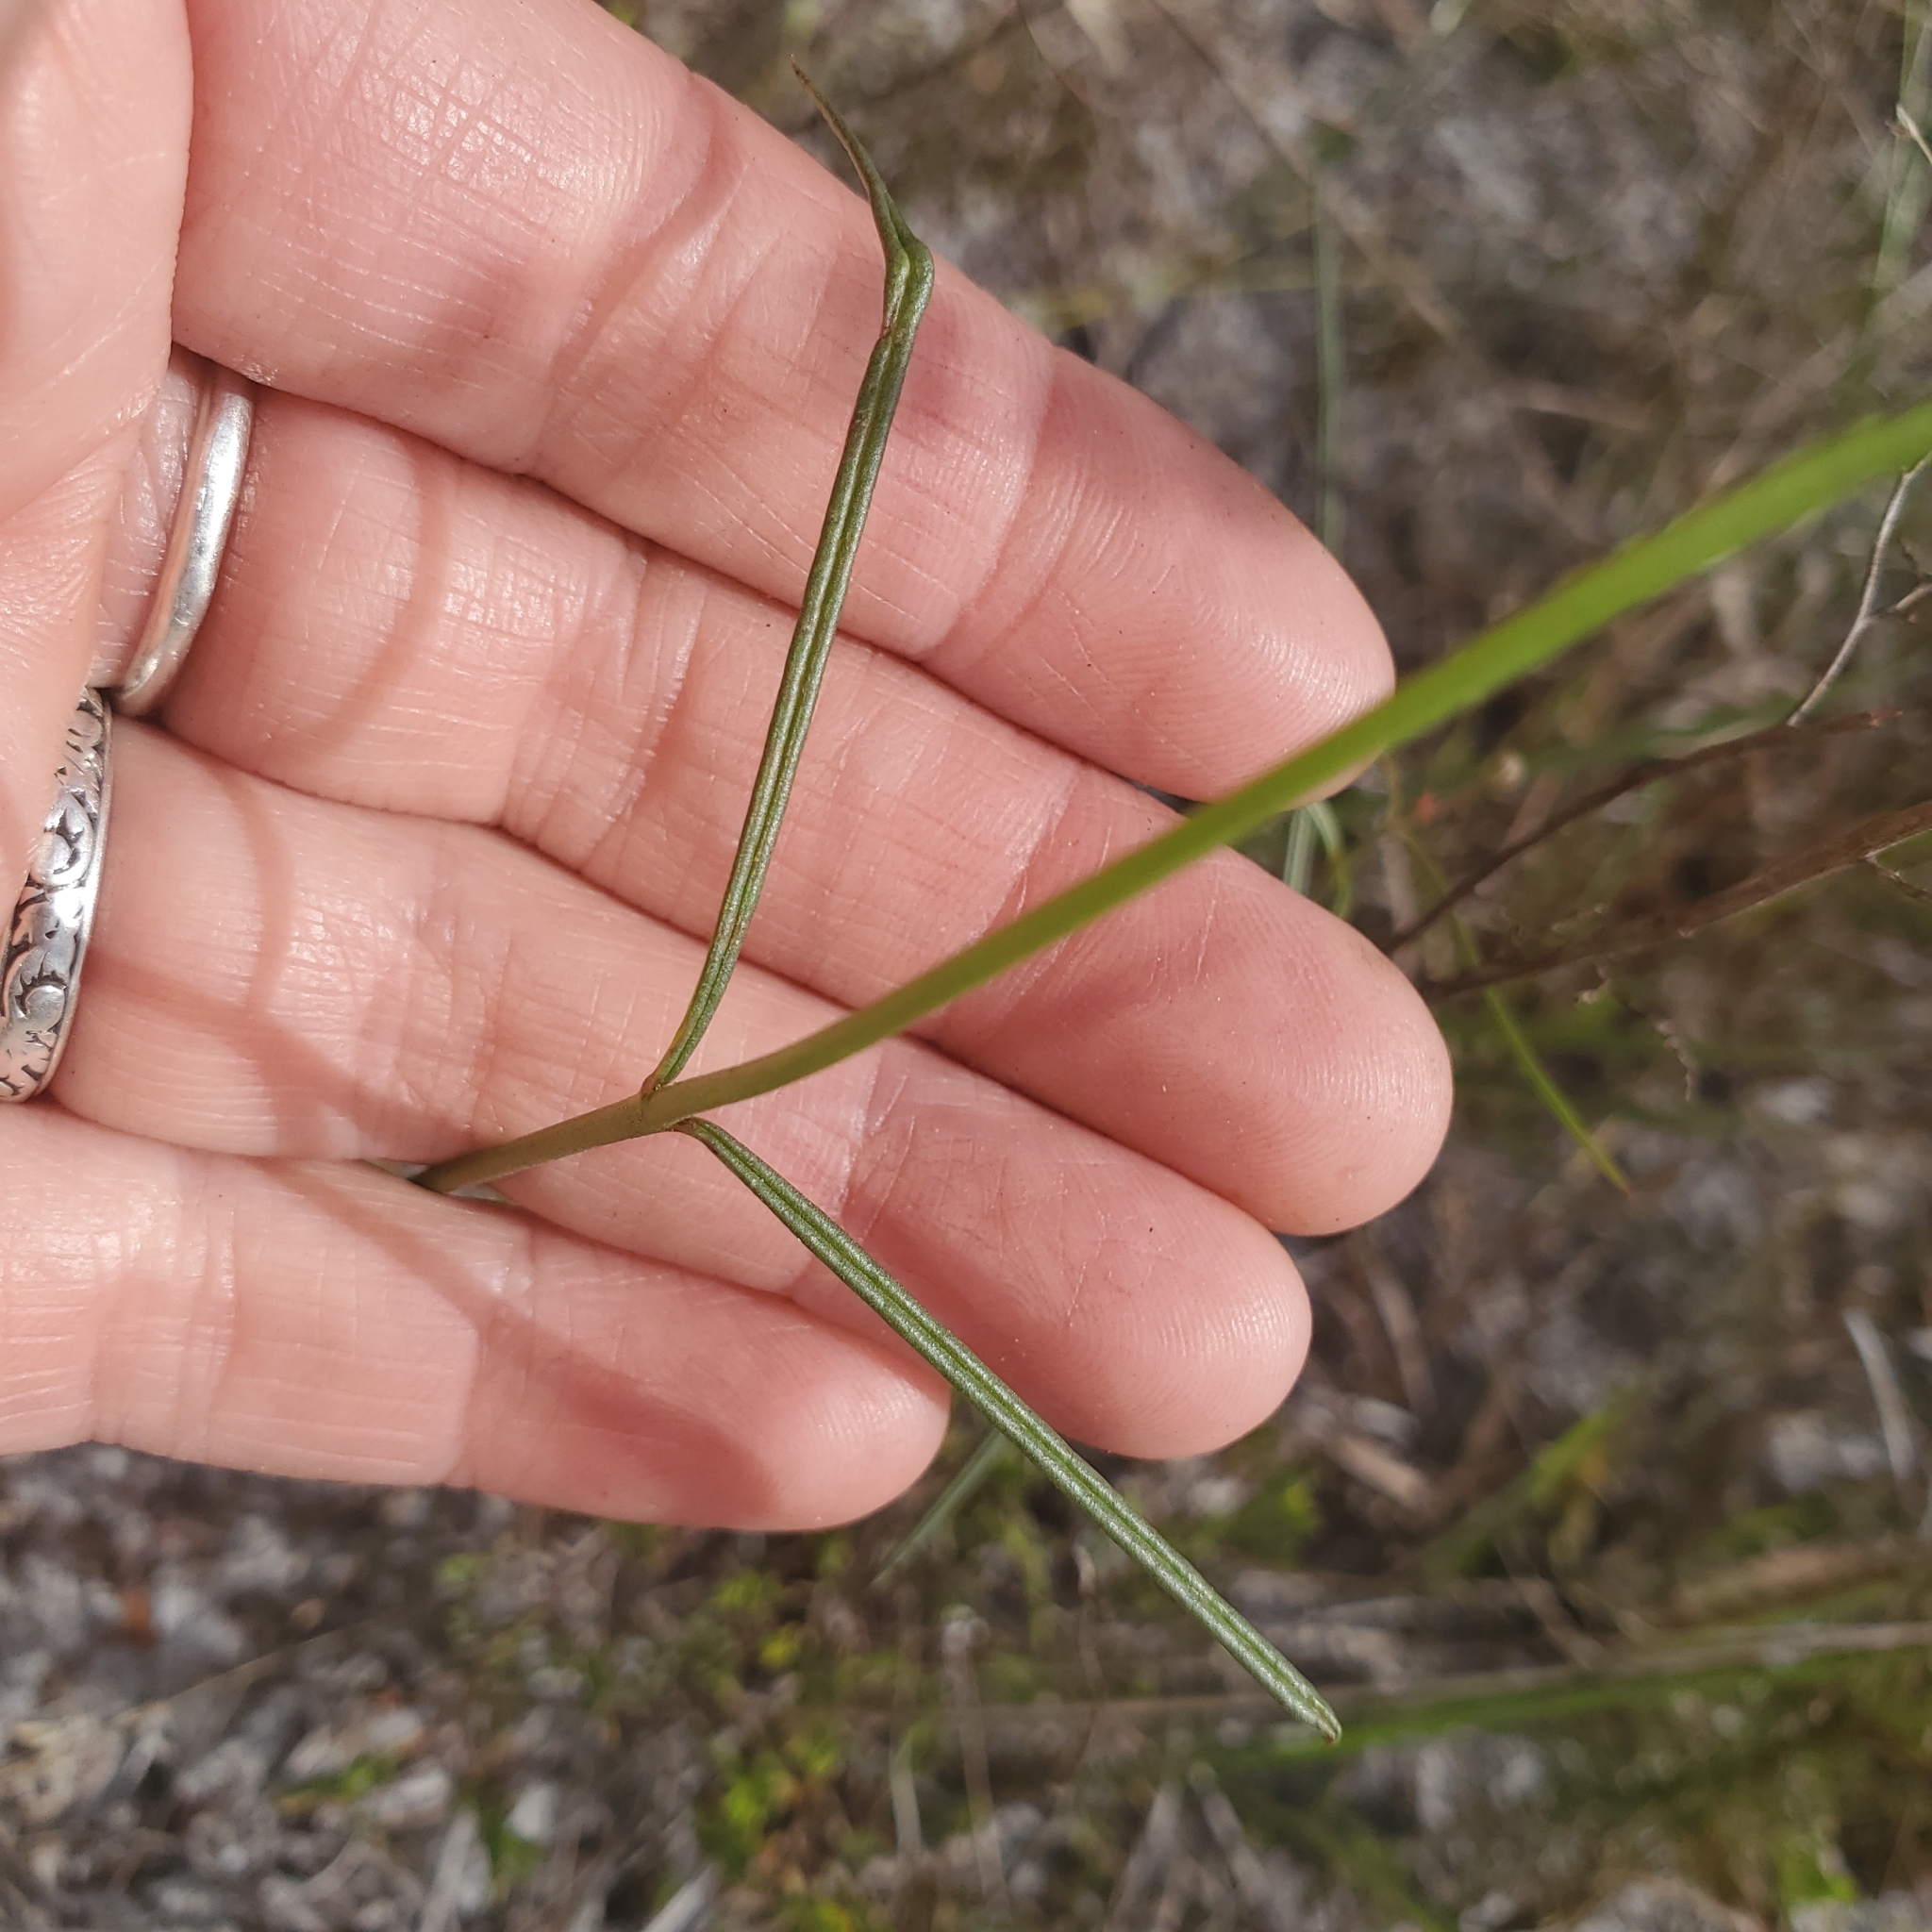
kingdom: Plantae
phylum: Tracheophyta
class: Magnoliopsida
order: Gentianales
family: Apocynaceae
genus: Asclepias
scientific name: Asclepias feayi
